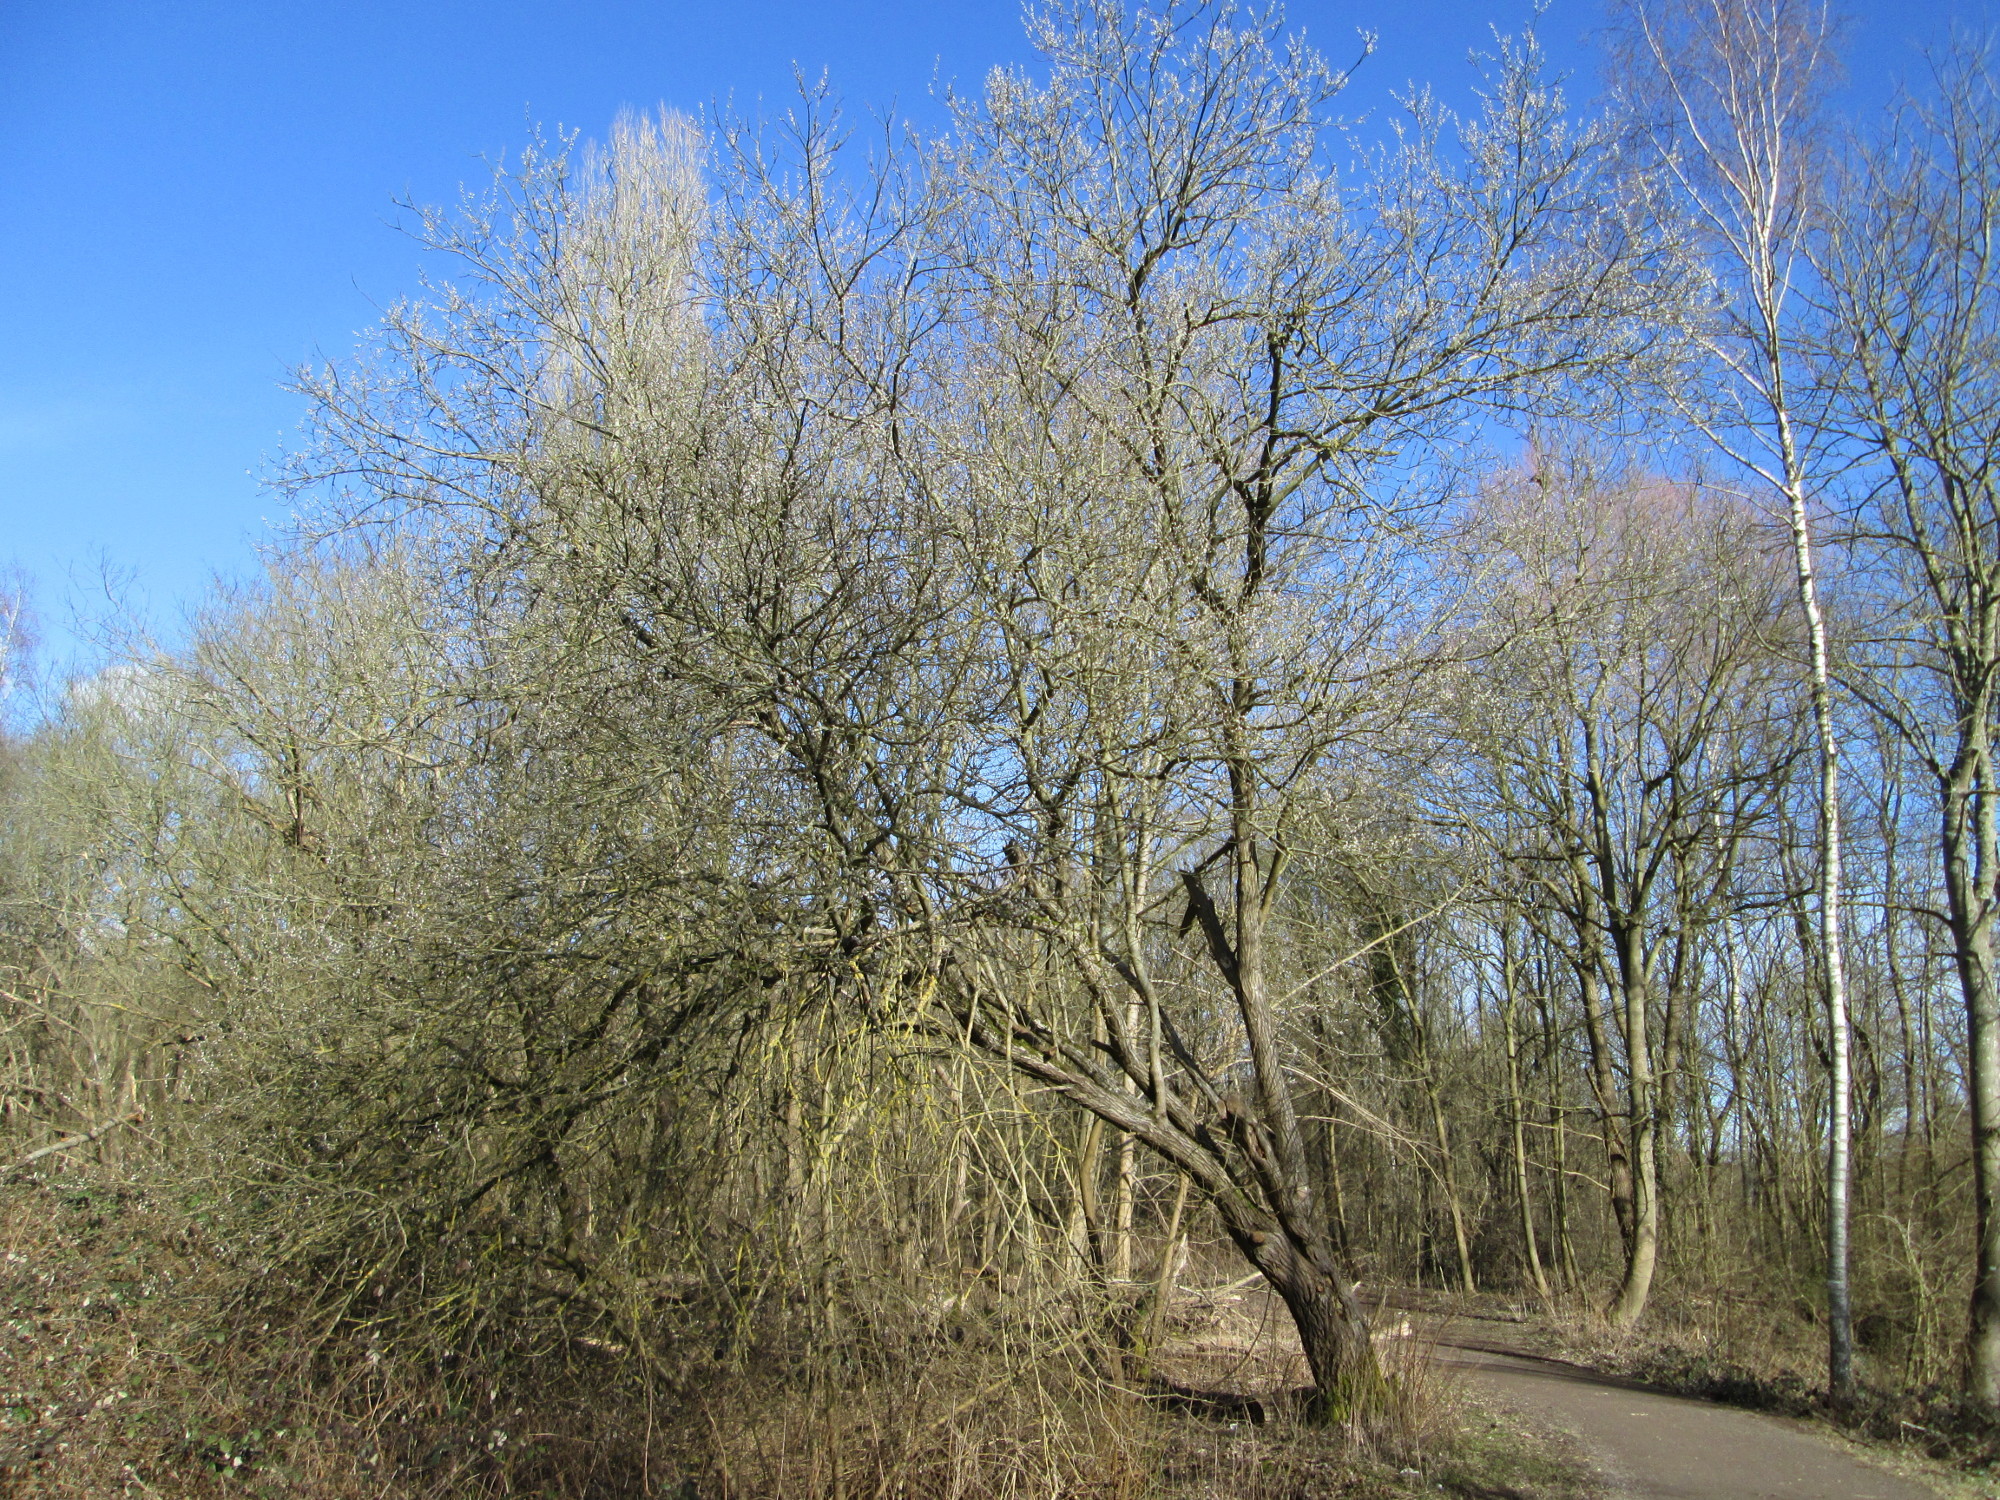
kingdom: Plantae
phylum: Tracheophyta
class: Magnoliopsida
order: Malpighiales
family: Salicaceae
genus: Salix
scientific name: Salix caprea
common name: Goat willow
